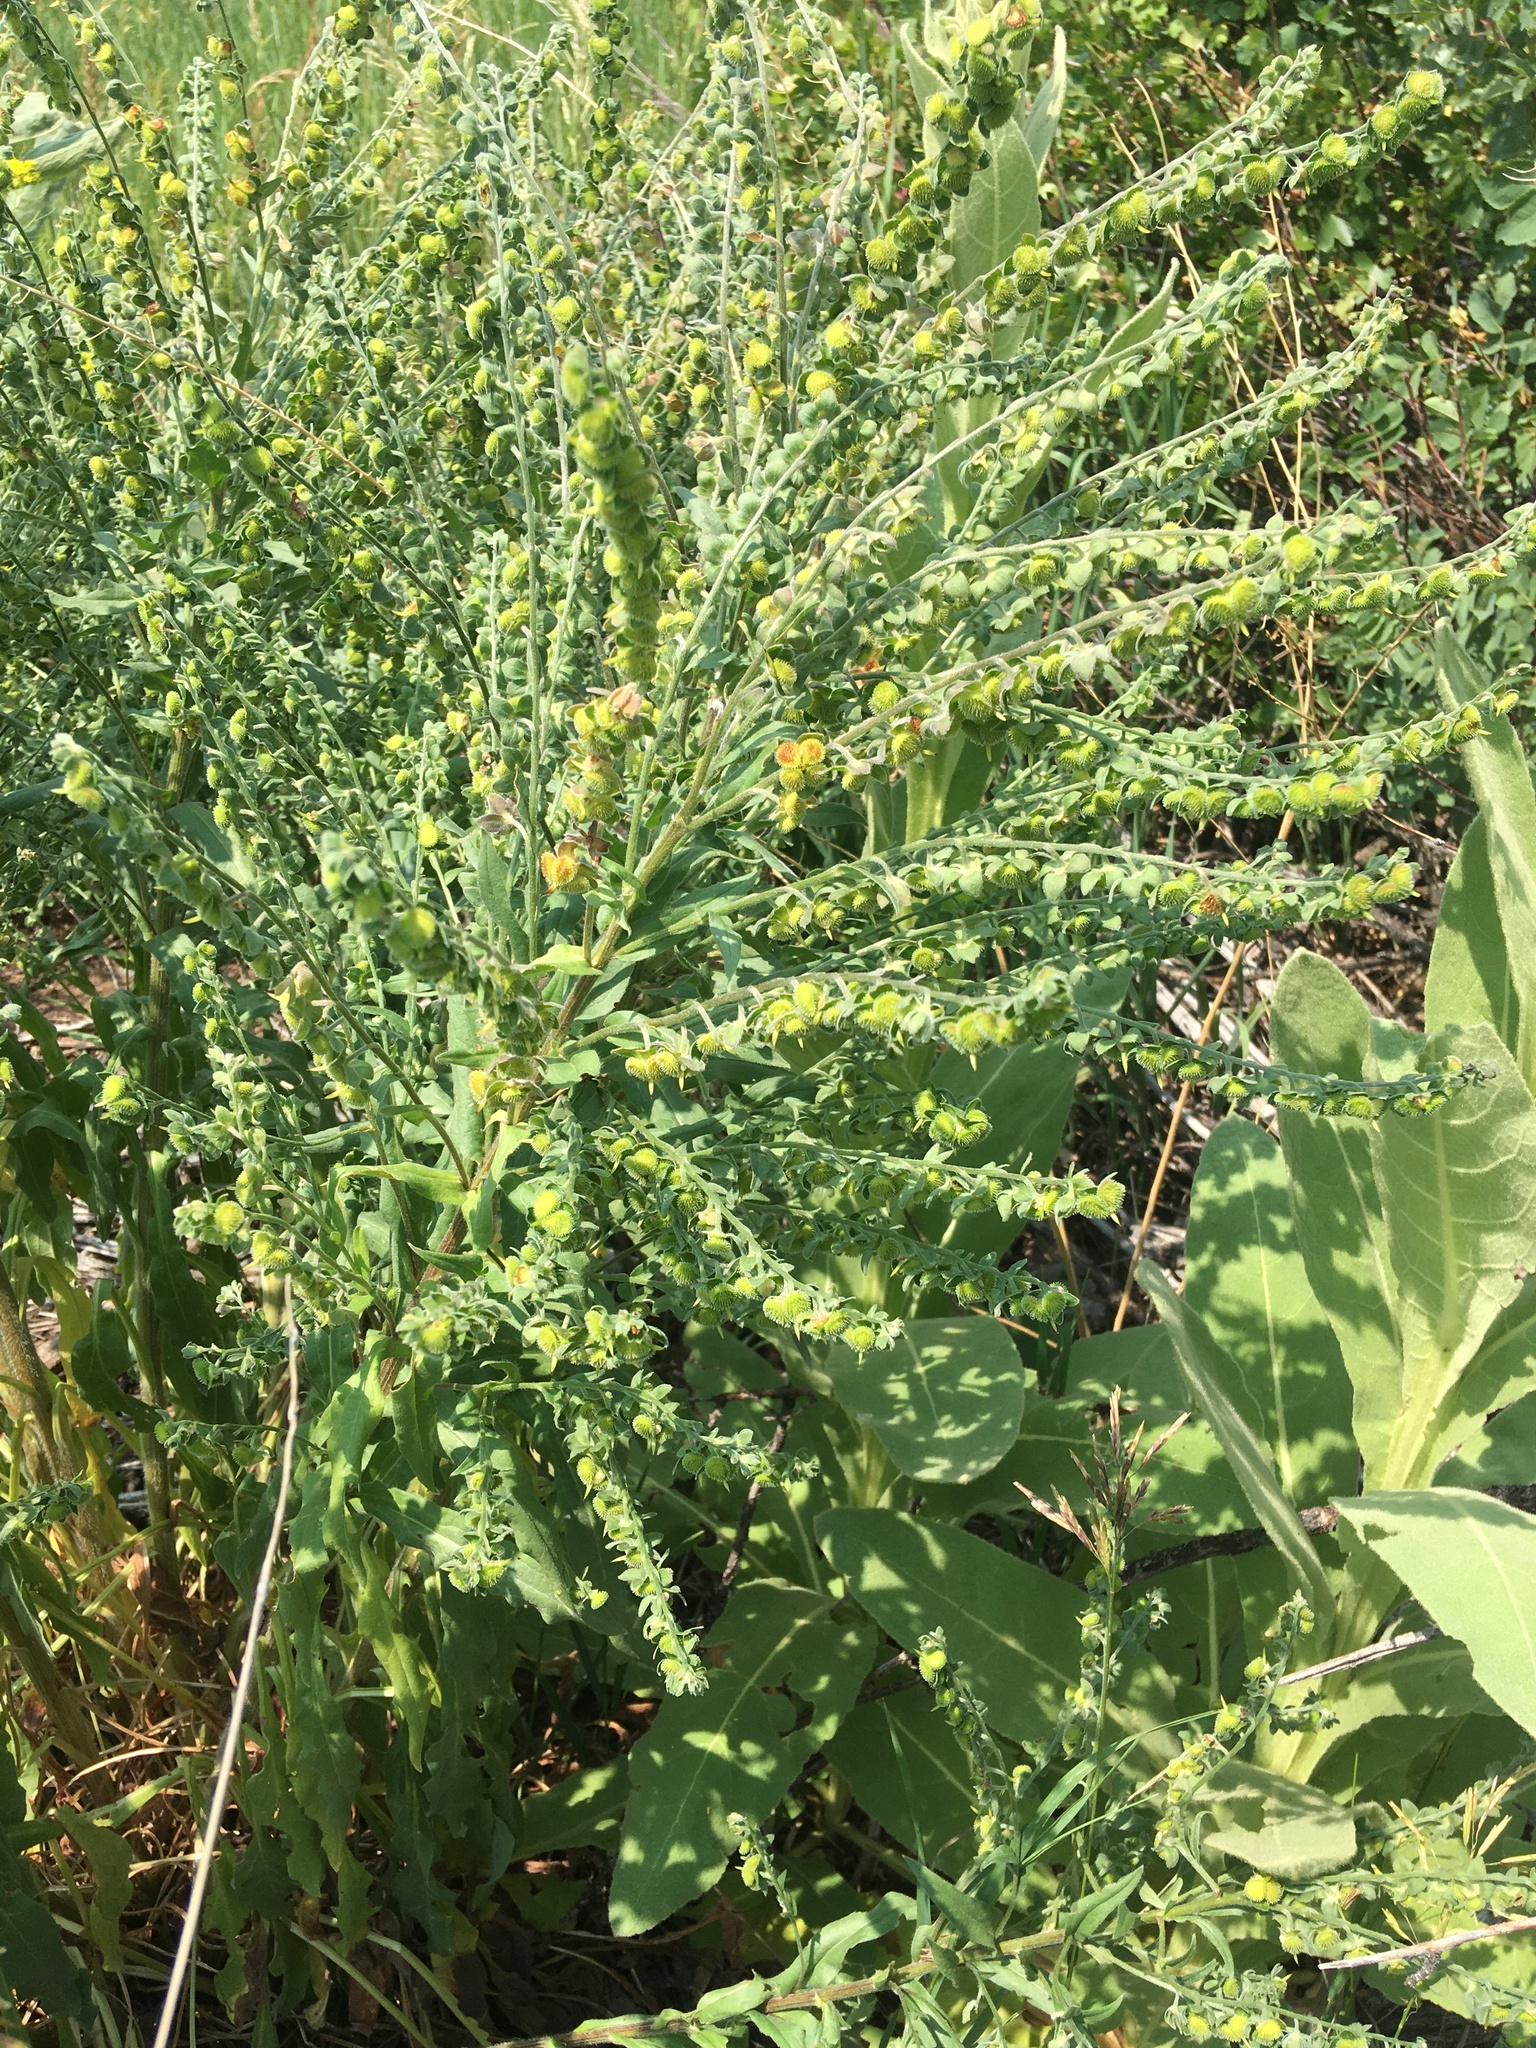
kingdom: Plantae
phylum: Tracheophyta
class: Magnoliopsida
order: Boraginales
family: Boraginaceae
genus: Cynoglossum
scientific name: Cynoglossum officinale
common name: Hound's-tongue
